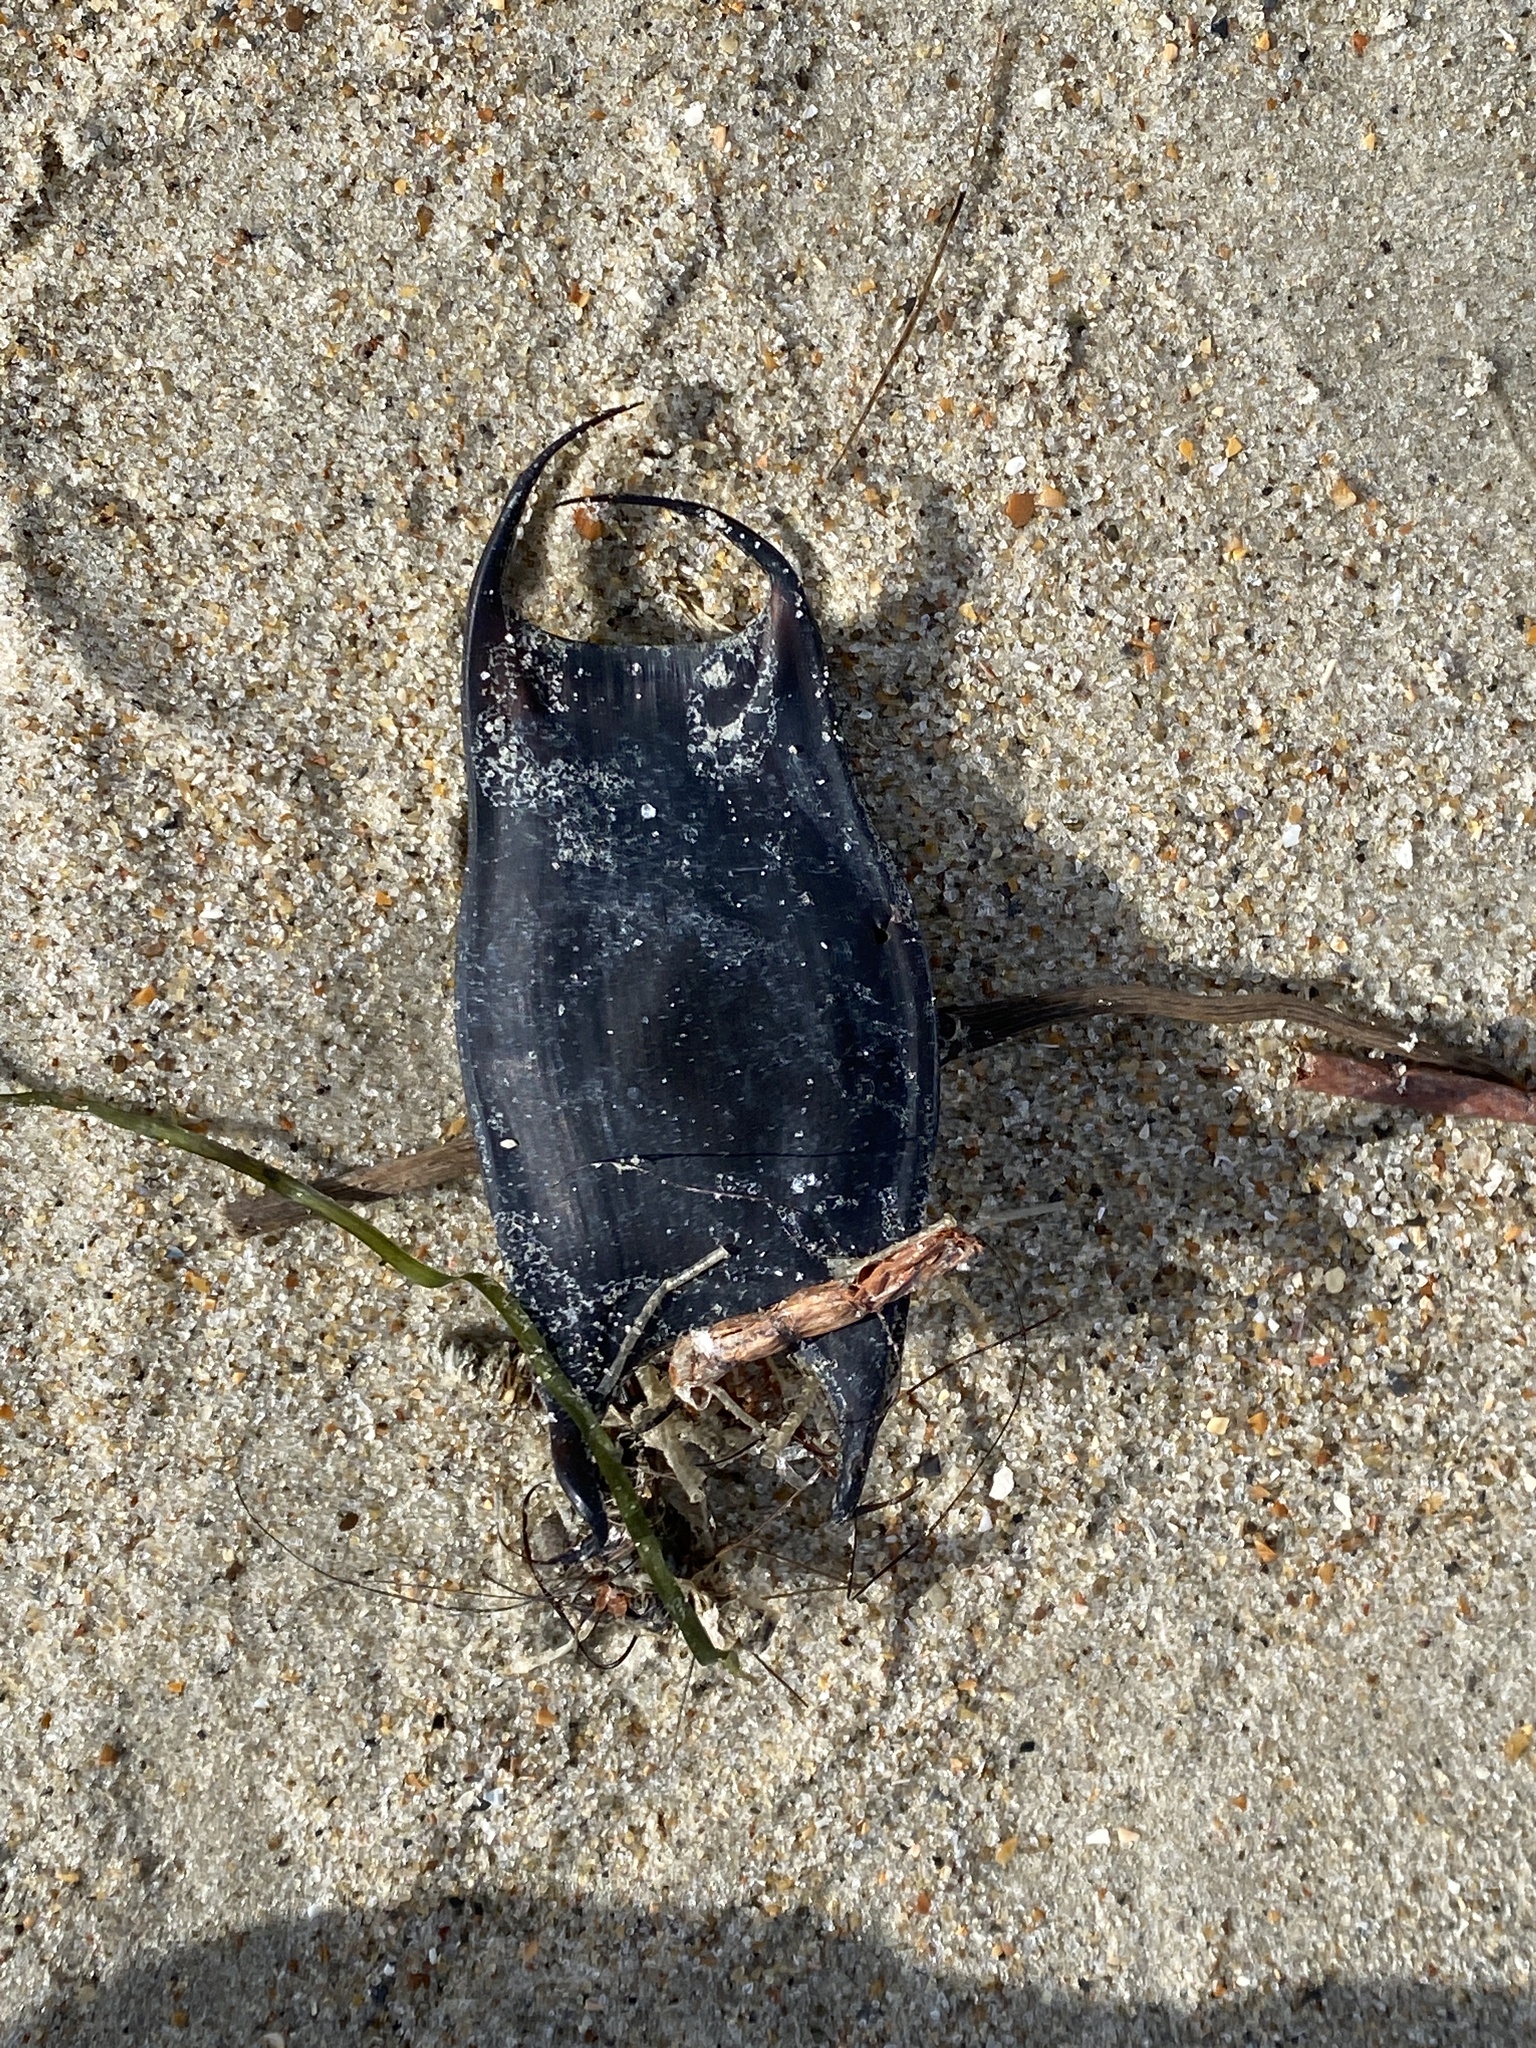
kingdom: Animalia
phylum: Chordata
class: Elasmobranchii
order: Rajiformes
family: Rajidae
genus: Raja
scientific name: Raja eglanteria
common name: Clearnose skate
